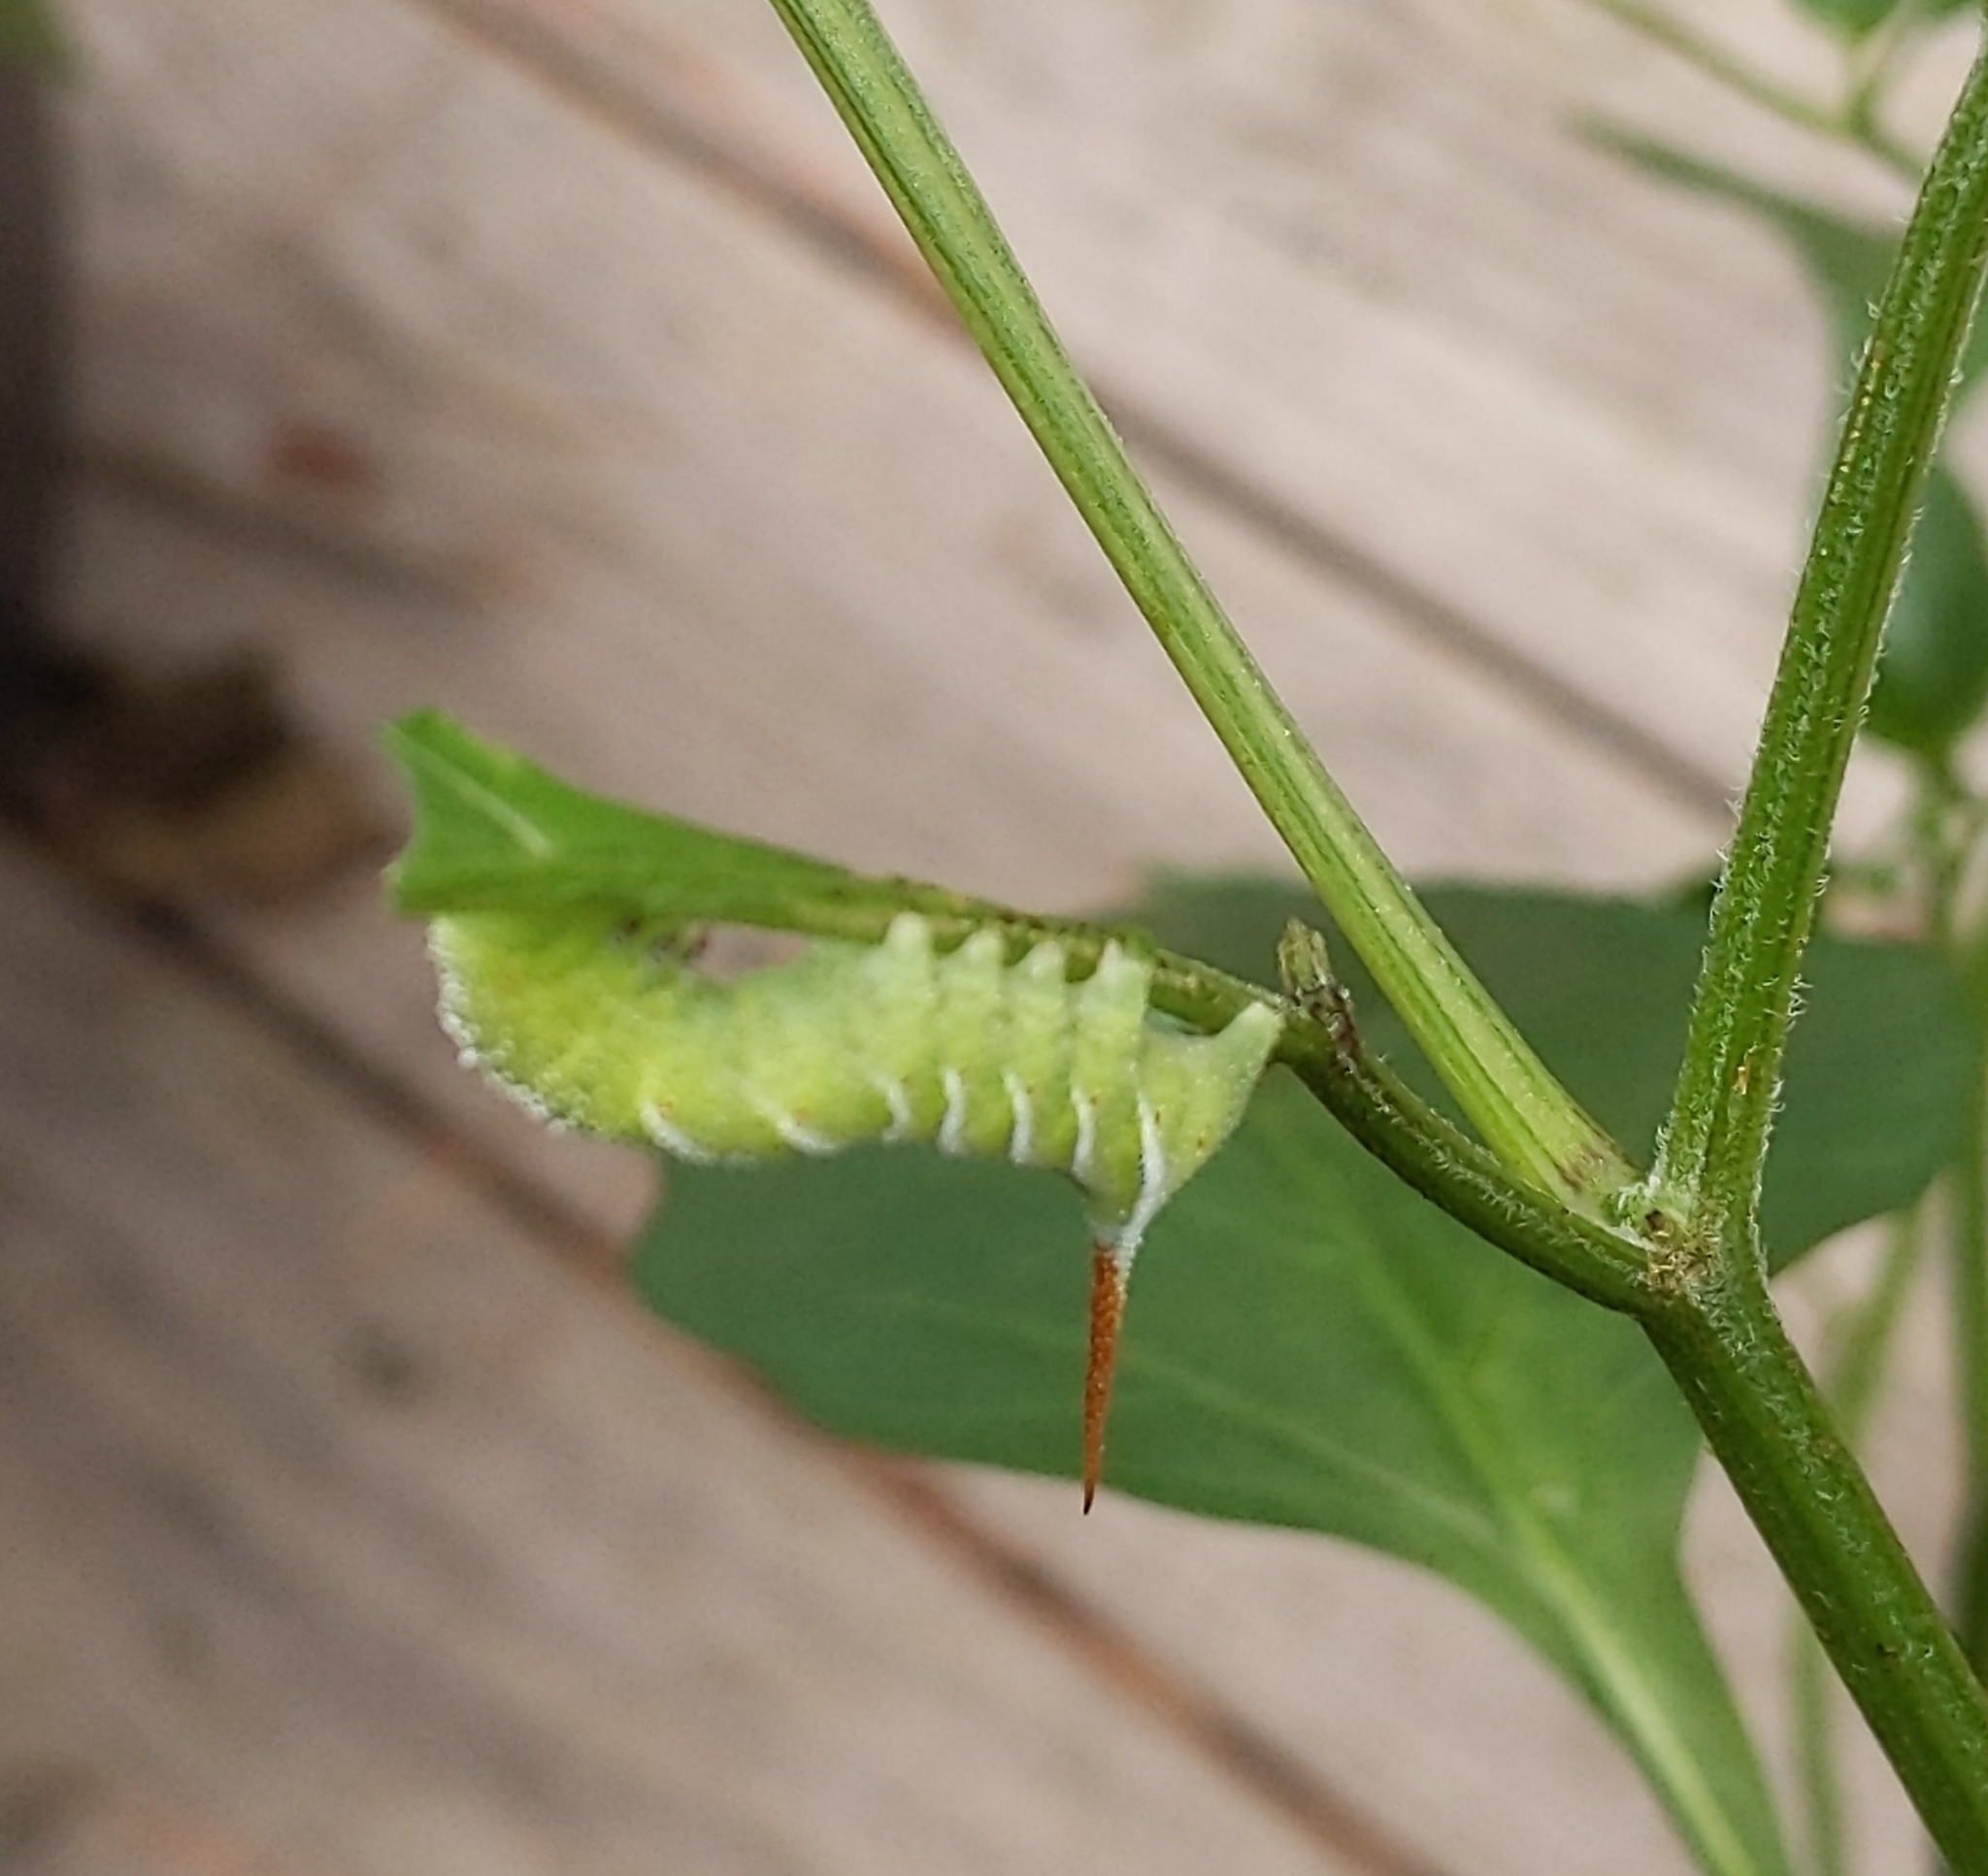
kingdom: Animalia
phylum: Arthropoda
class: Insecta
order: Lepidoptera
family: Sphingidae
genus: Manduca
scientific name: Manduca sexta
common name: Carolina sphinx
